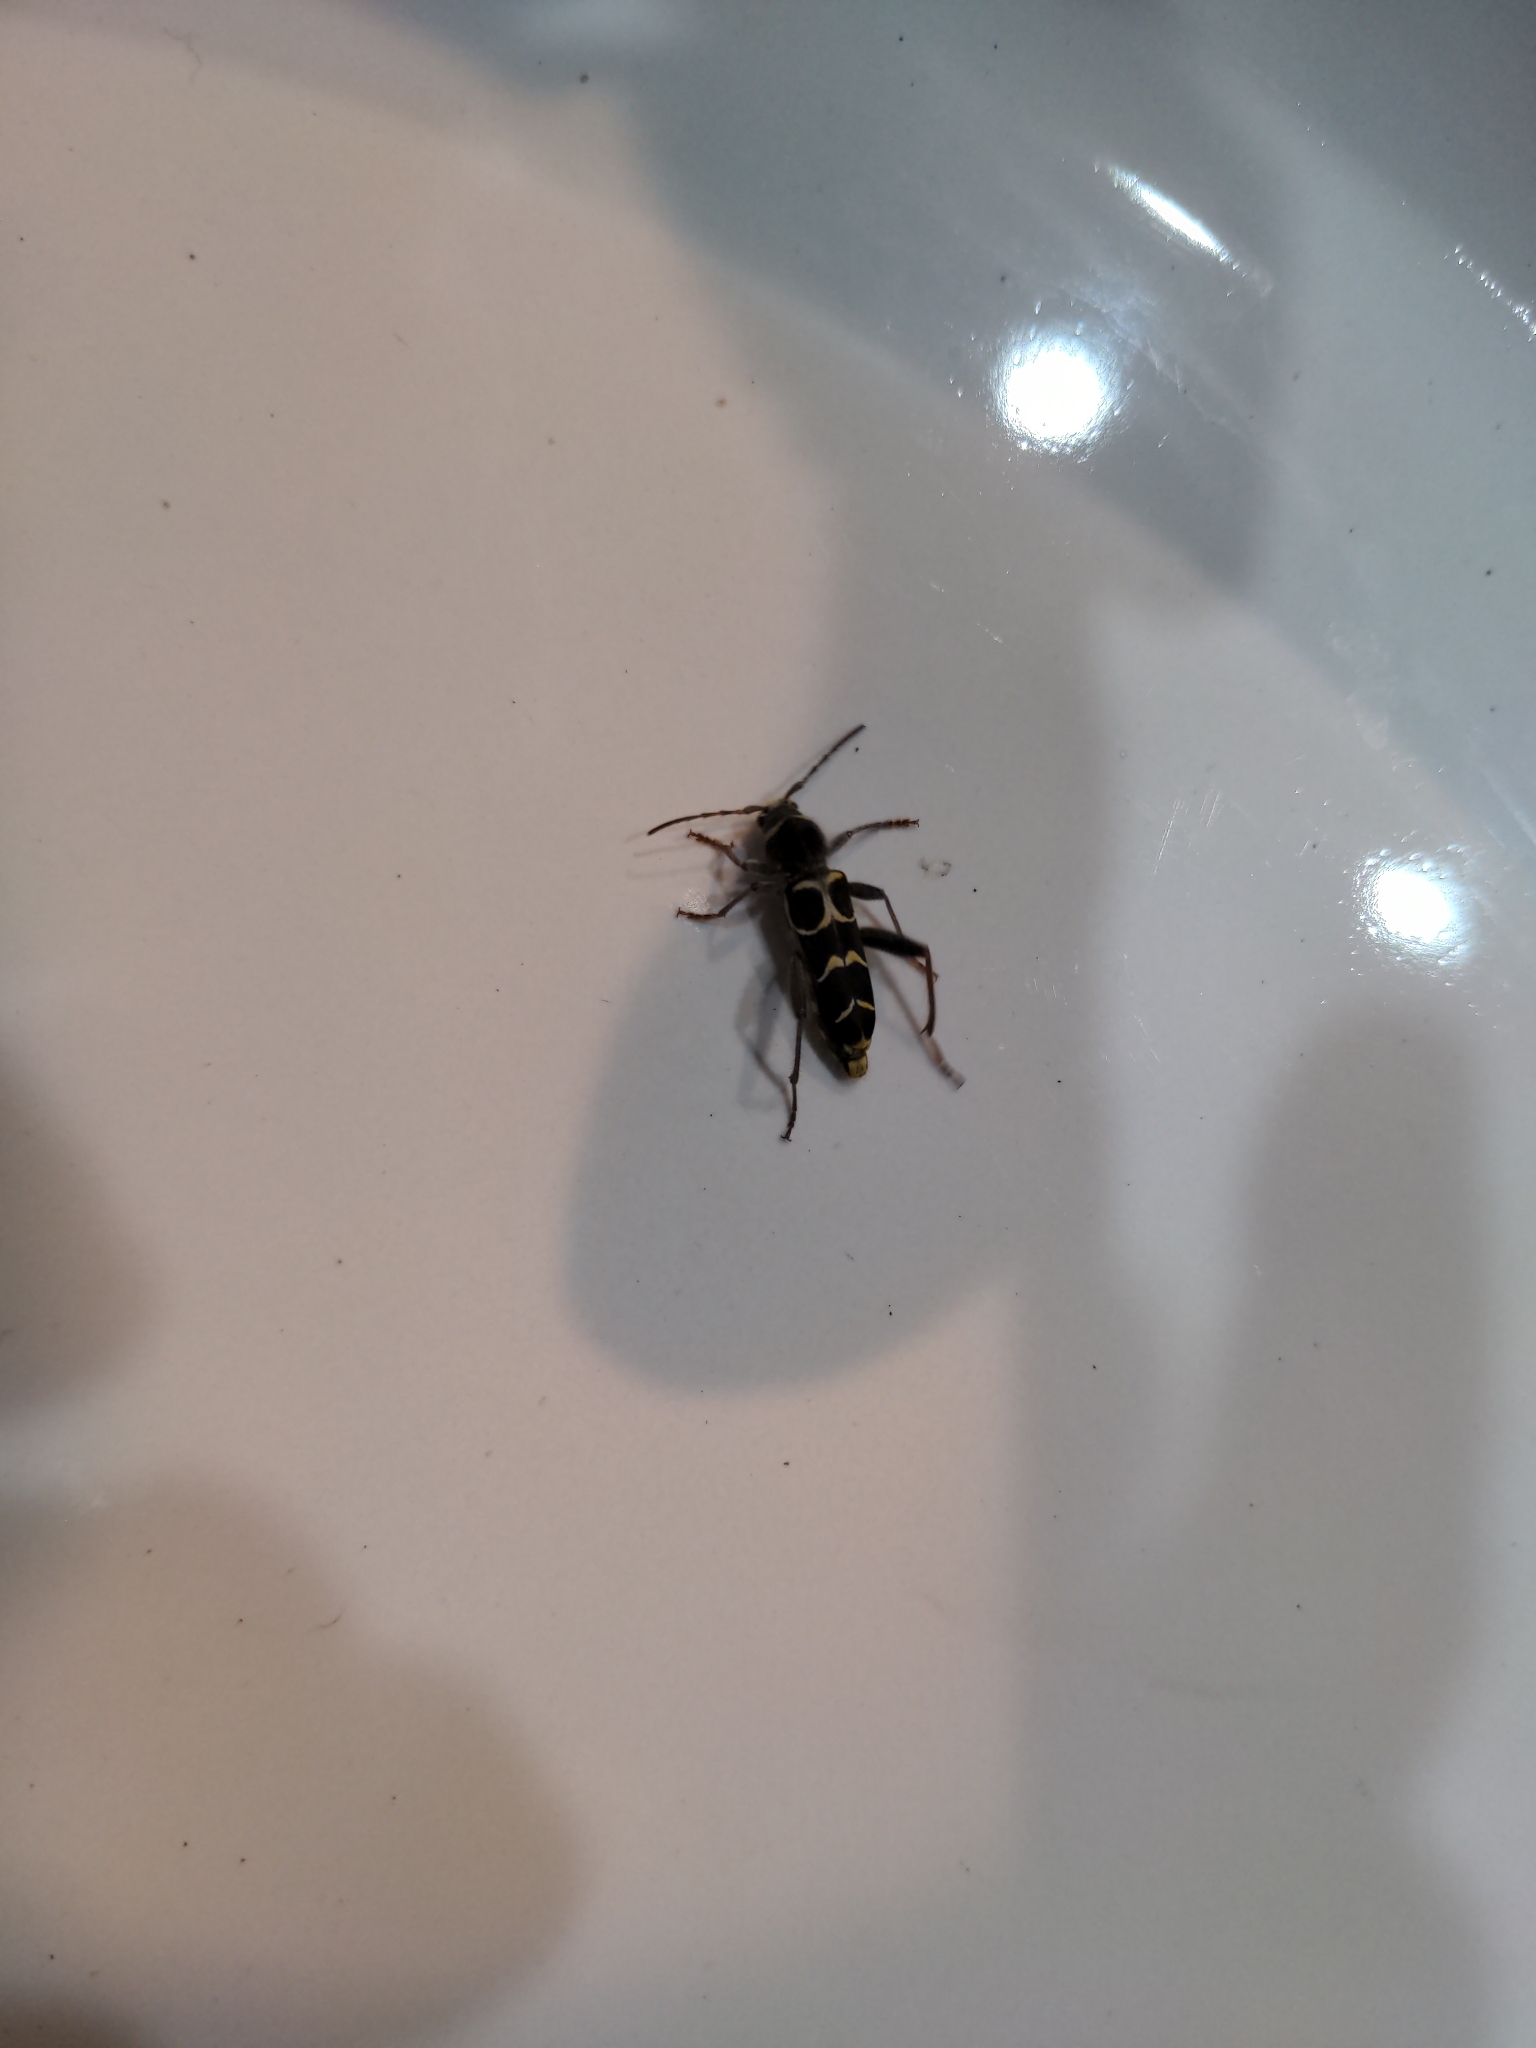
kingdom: Animalia
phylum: Arthropoda
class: Insecta
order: Coleoptera
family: Cerambycidae
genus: Neoclytus
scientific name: Neoclytus caprea
